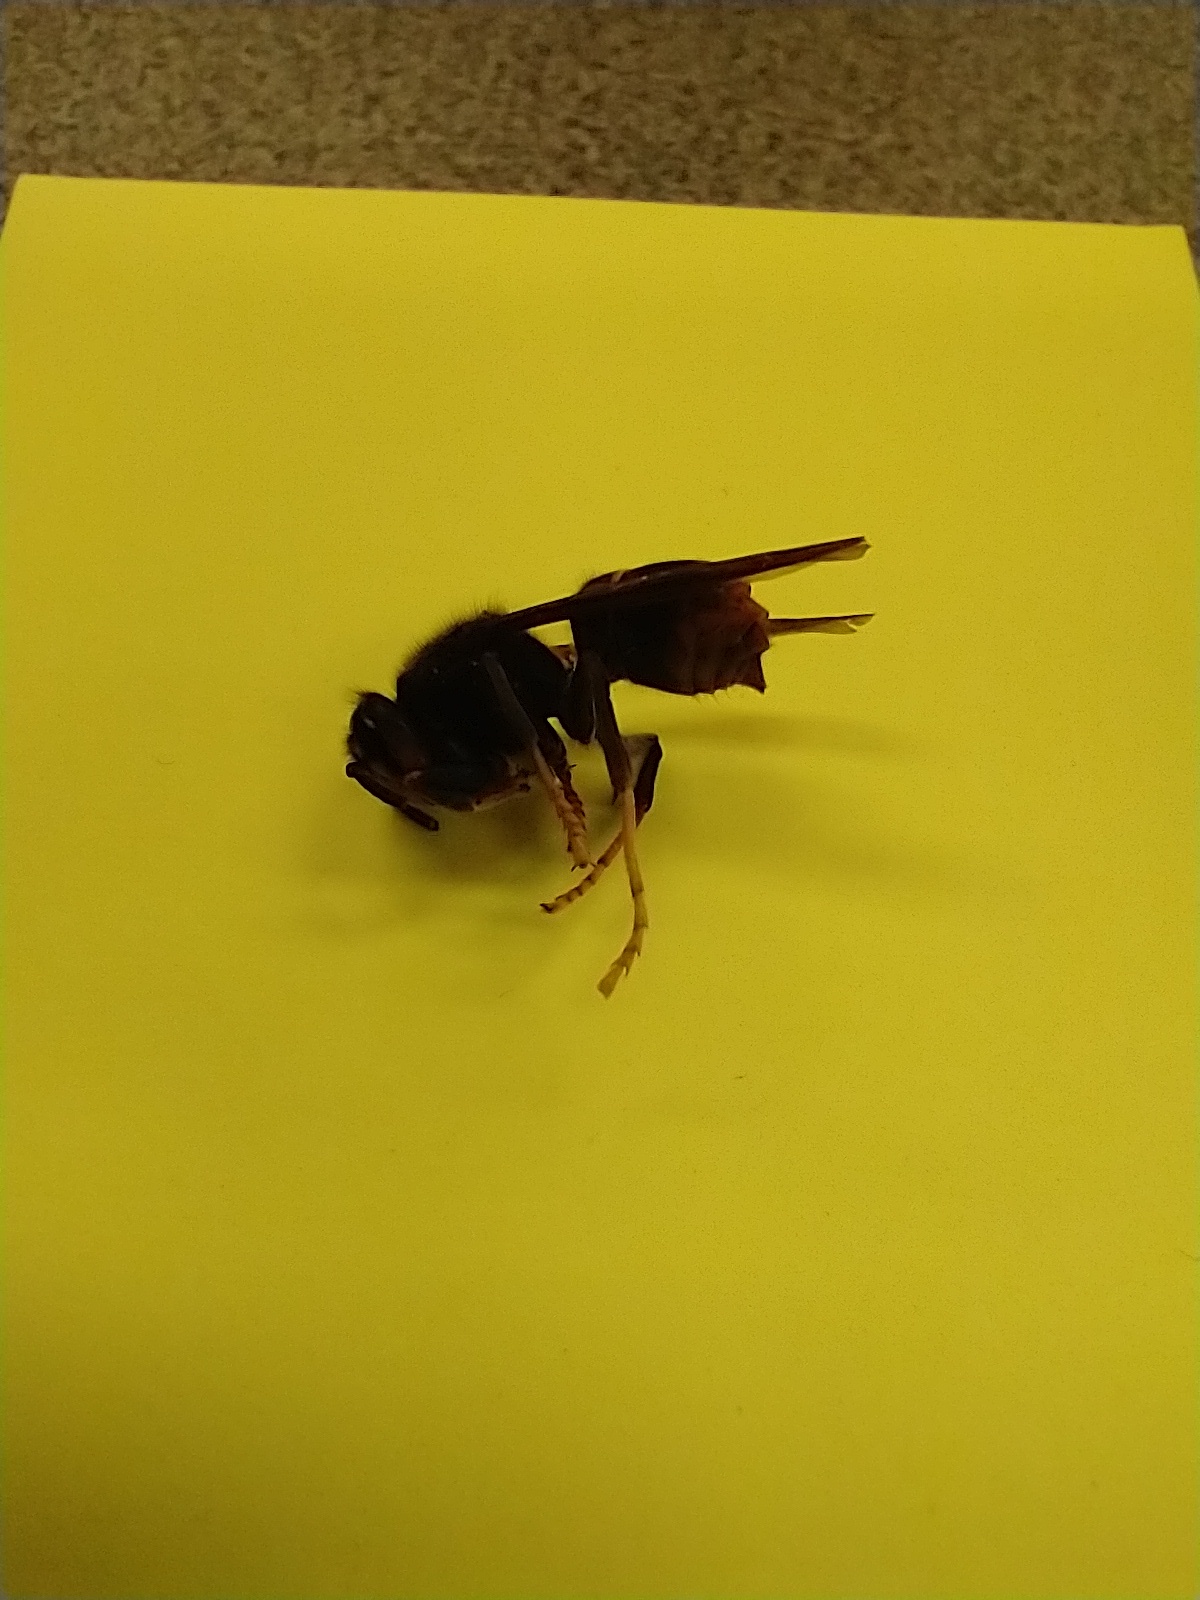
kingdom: Animalia
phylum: Arthropoda
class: Insecta
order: Hymenoptera
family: Vespidae
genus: Vespa
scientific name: Vespa velutina
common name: Asian hornet
